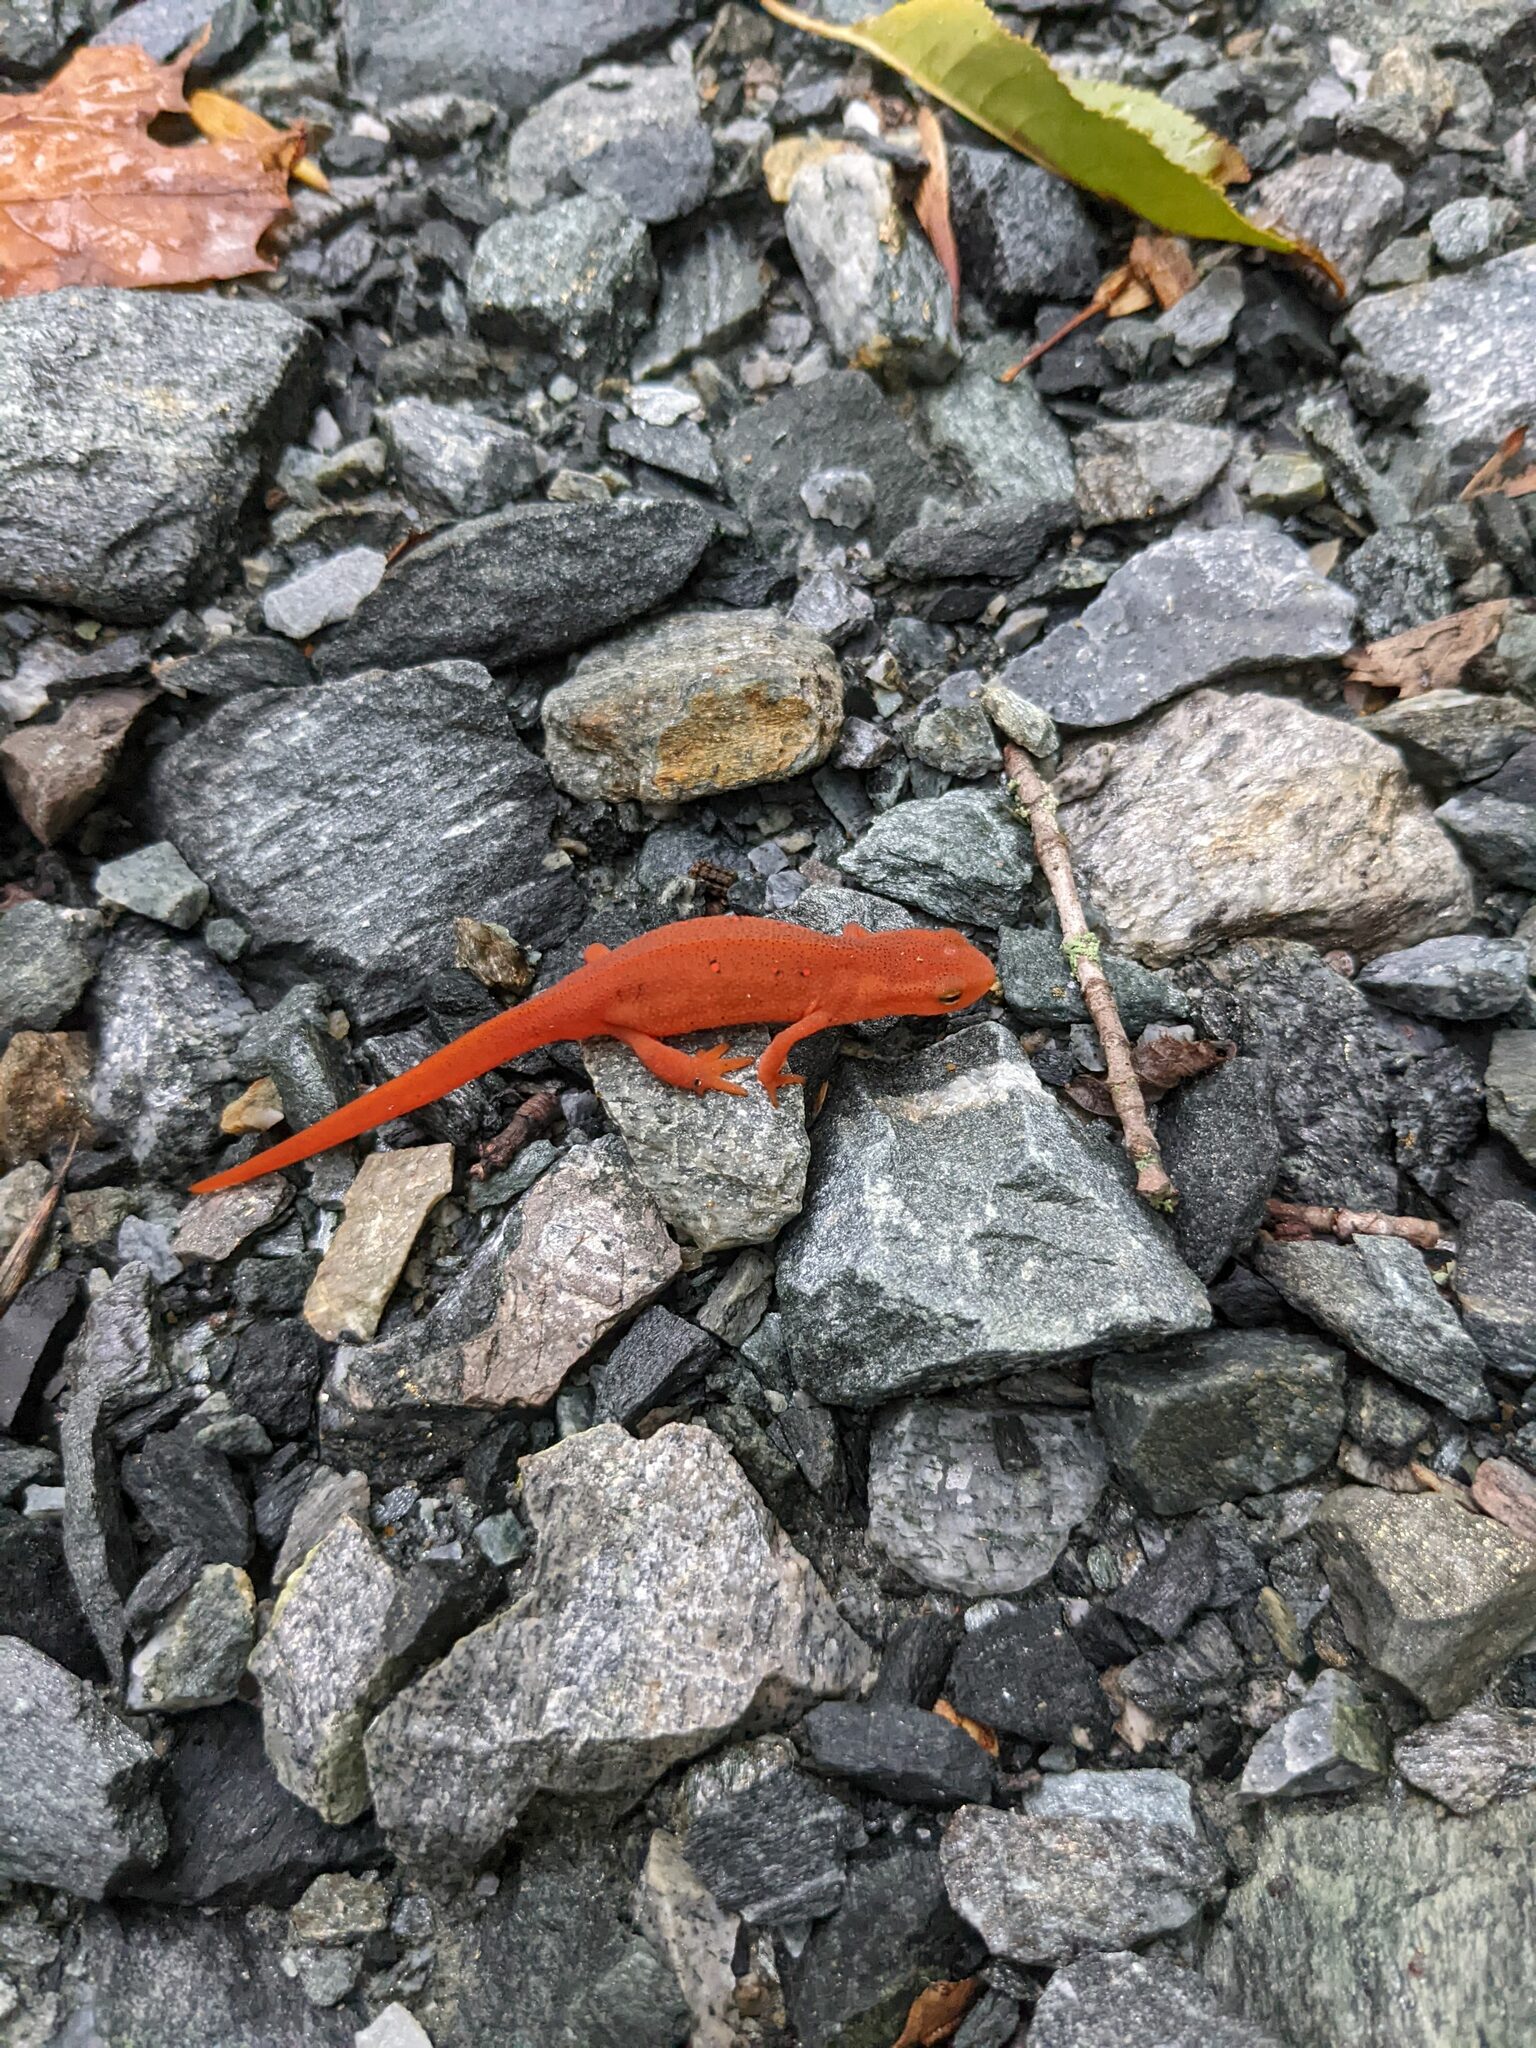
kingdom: Animalia
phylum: Chordata
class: Amphibia
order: Caudata
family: Salamandridae
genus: Notophthalmus
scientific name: Notophthalmus viridescens
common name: Eastern newt
